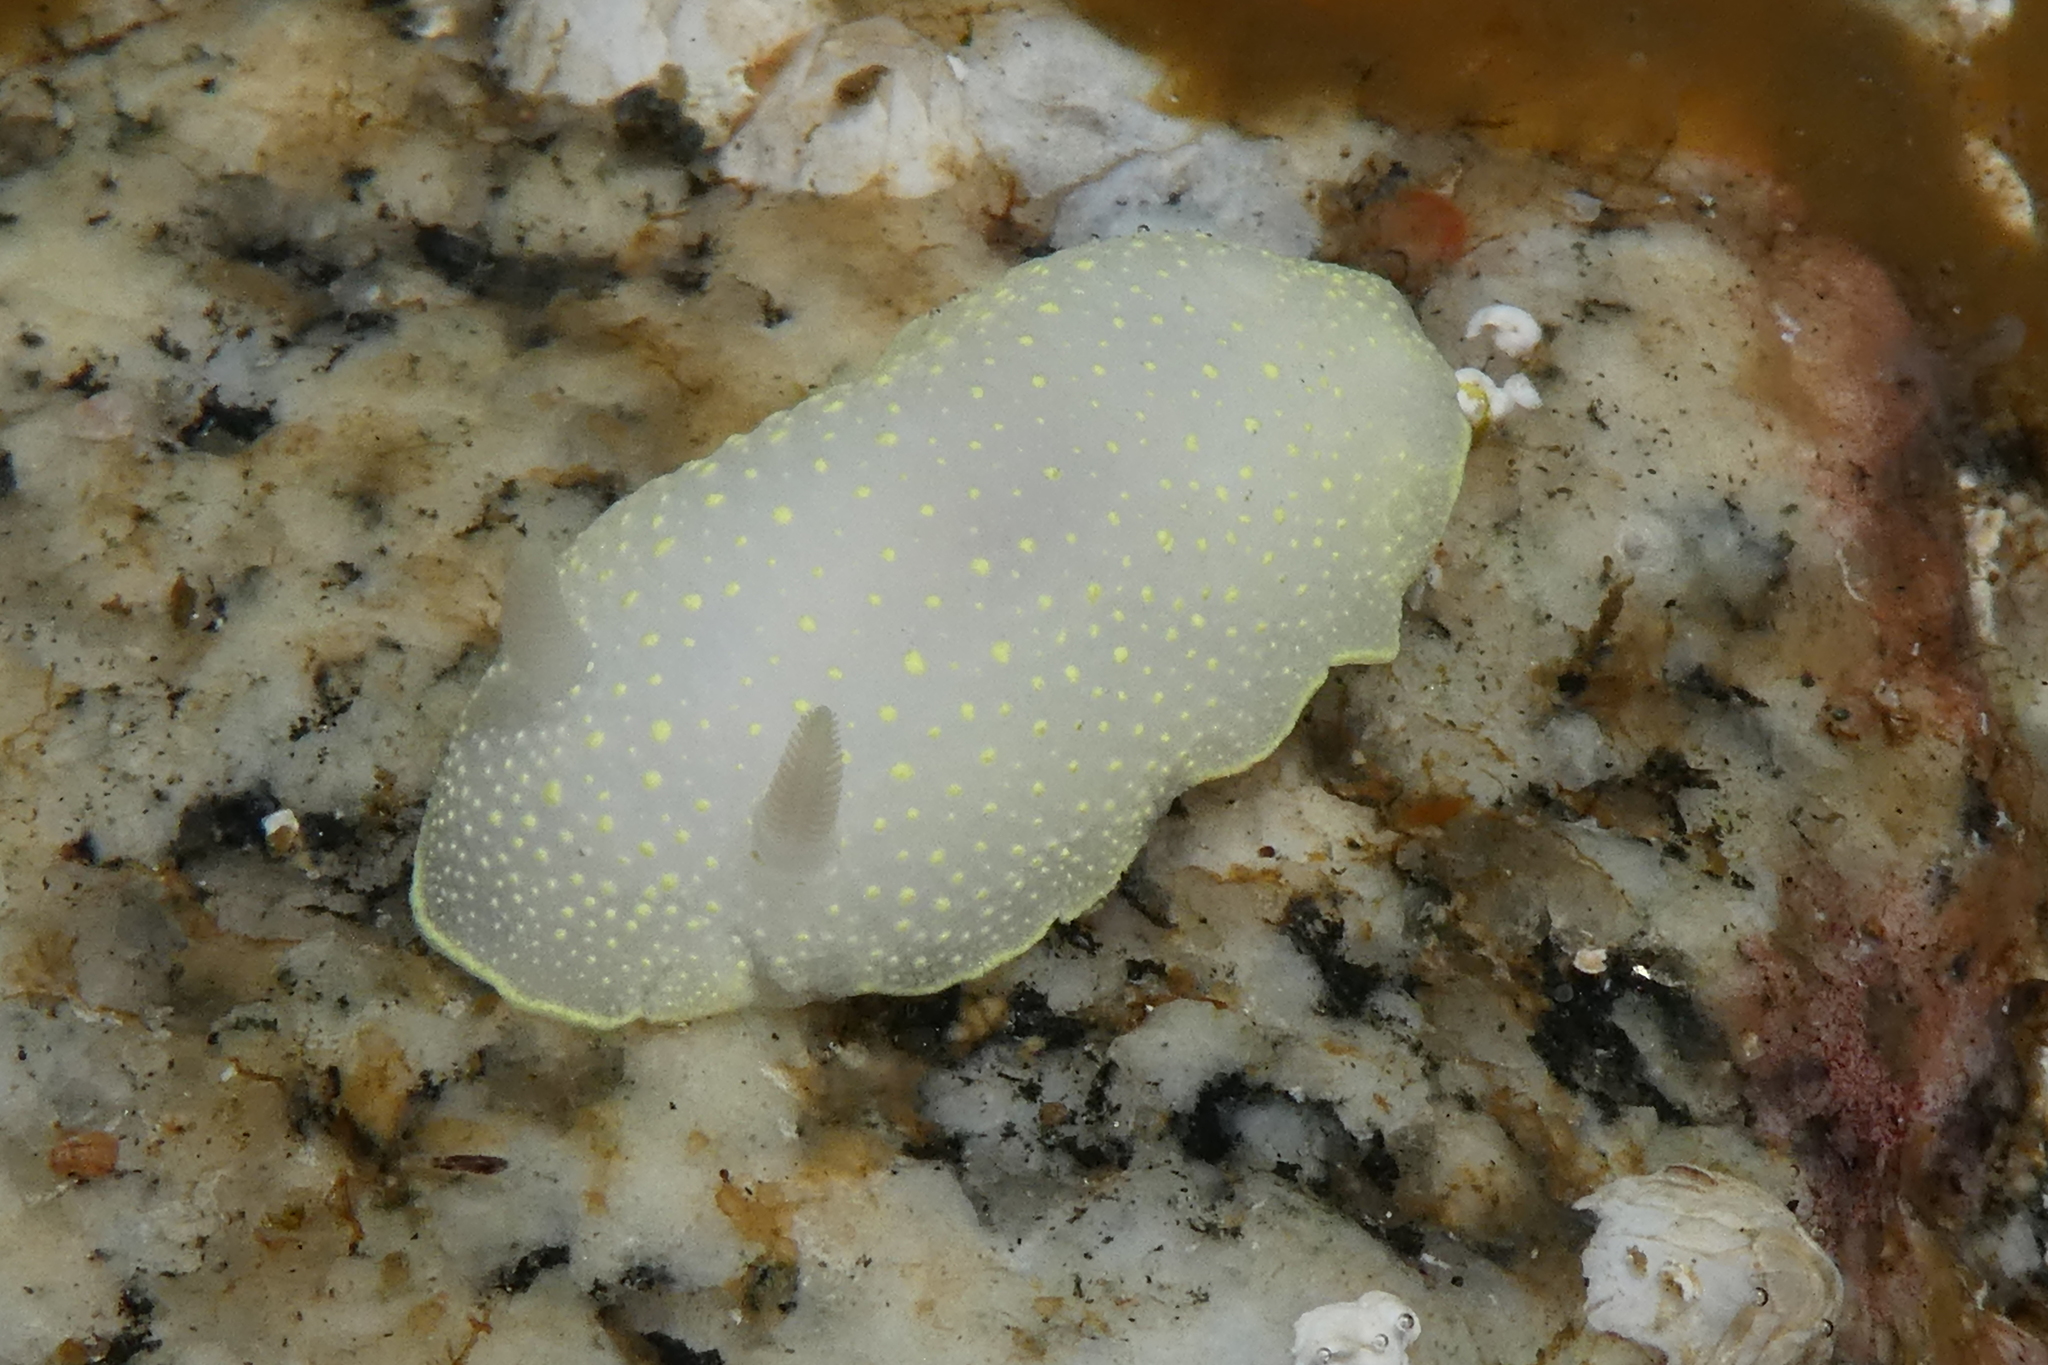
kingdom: Animalia
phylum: Mollusca
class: Gastropoda
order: Nudibranchia
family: Cadlinidae
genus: Cadlina
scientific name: Cadlina luteomarginata
